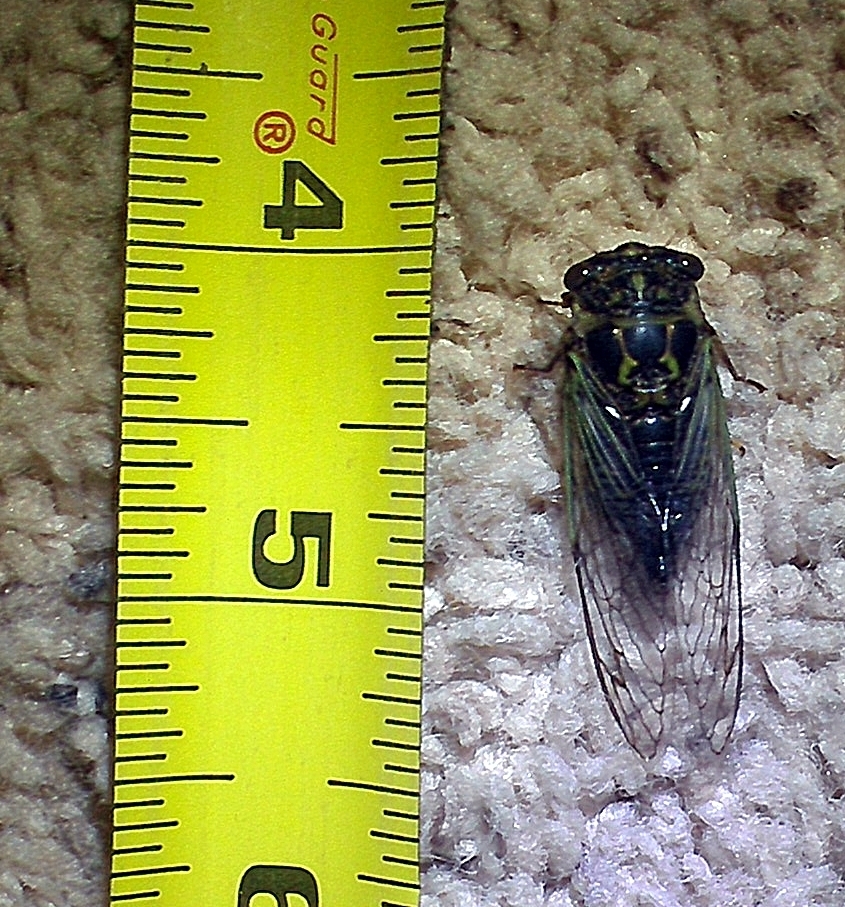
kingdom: Animalia
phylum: Arthropoda
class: Insecta
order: Hemiptera
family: Cicadidae
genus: Neotibicen
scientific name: Neotibicen canicularis
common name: God-day cicada
